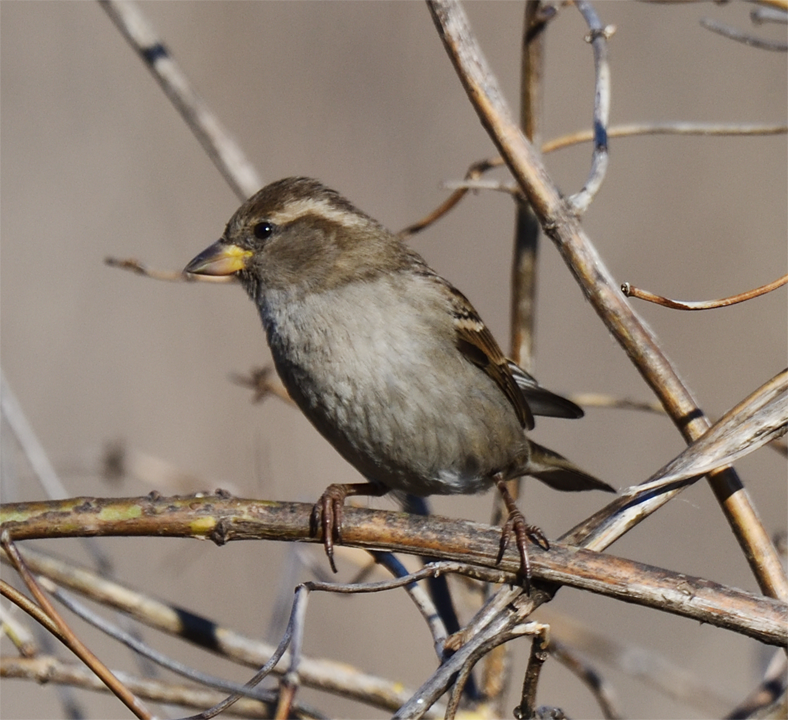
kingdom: Animalia
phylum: Chordata
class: Aves
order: Passeriformes
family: Passeridae
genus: Passer
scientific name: Passer domesticus
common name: House sparrow
